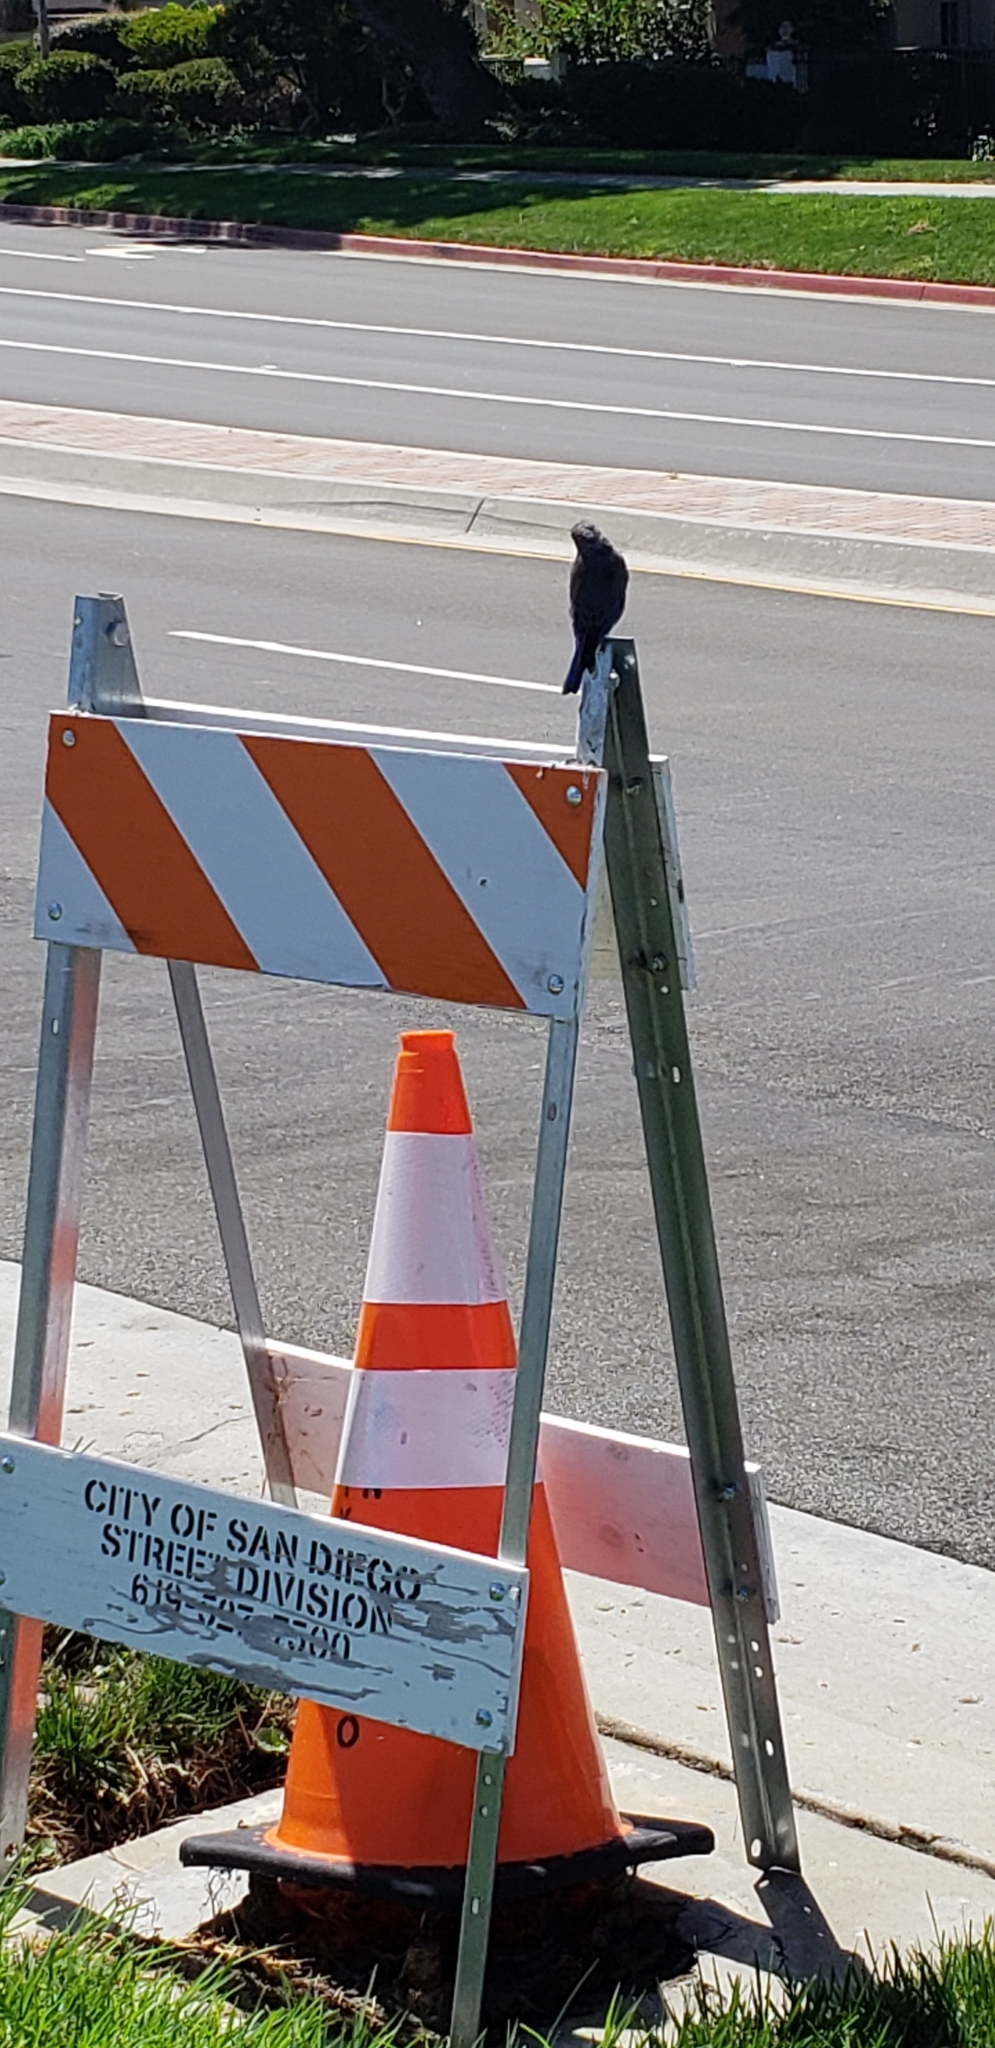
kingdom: Animalia
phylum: Chordata
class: Aves
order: Passeriformes
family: Turdidae
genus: Sialia
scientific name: Sialia mexicana
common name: Western bluebird
